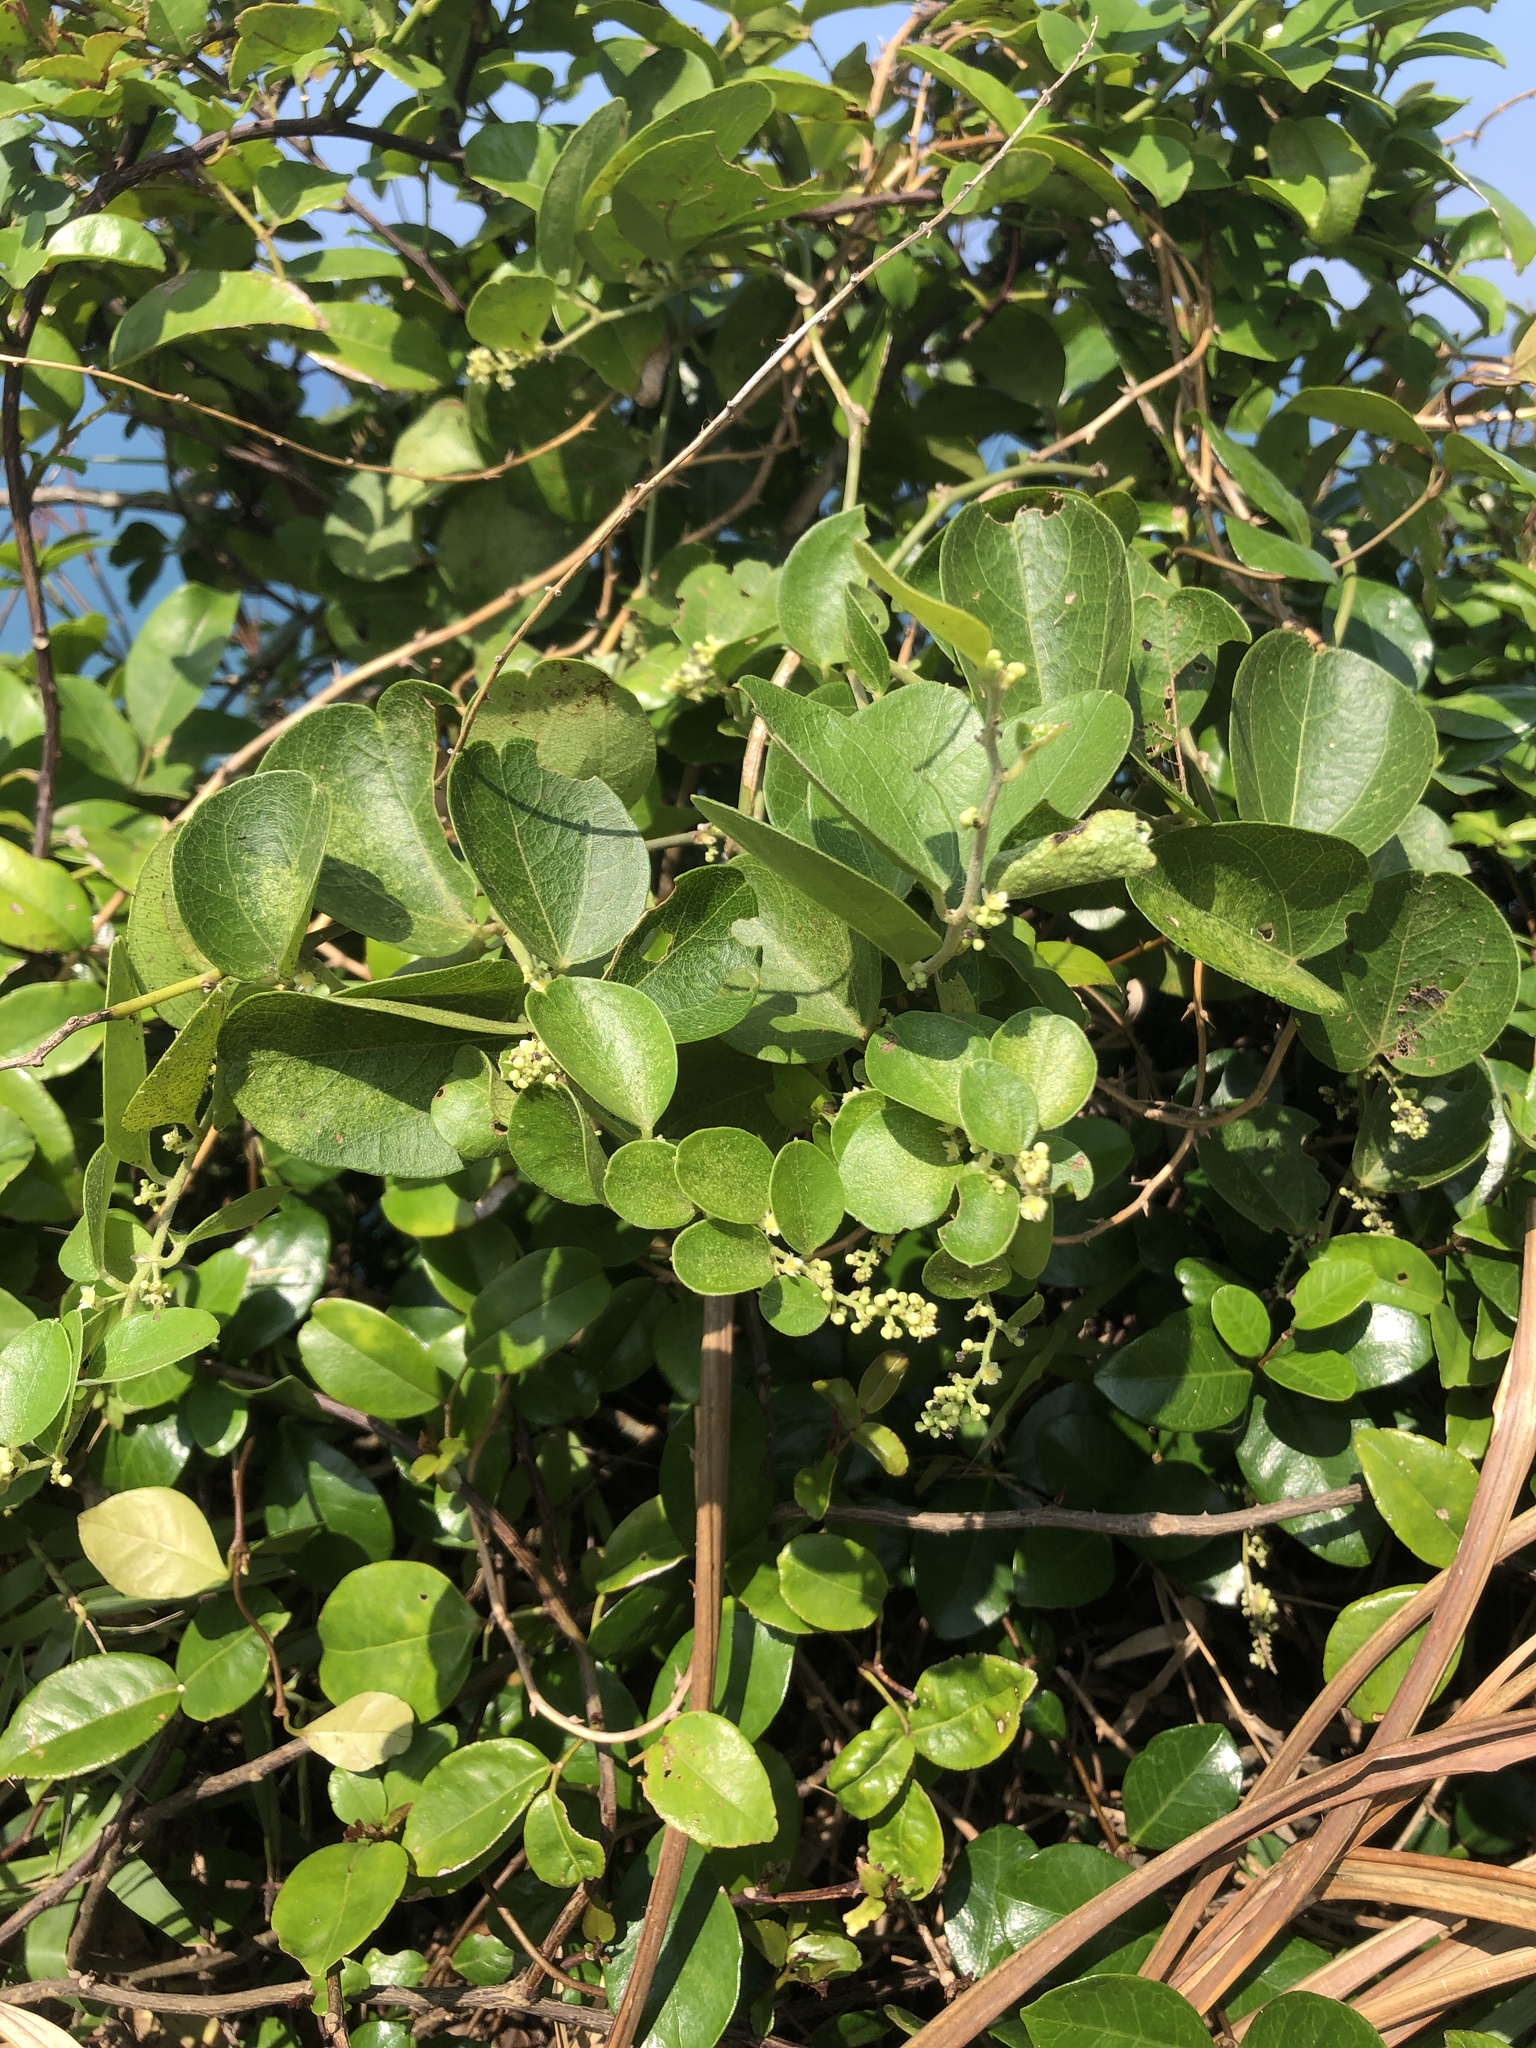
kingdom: Plantae
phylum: Tracheophyta
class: Magnoliopsida
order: Ranunculales
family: Menispermaceae
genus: Cocculus
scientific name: Cocculus orbiculatus
